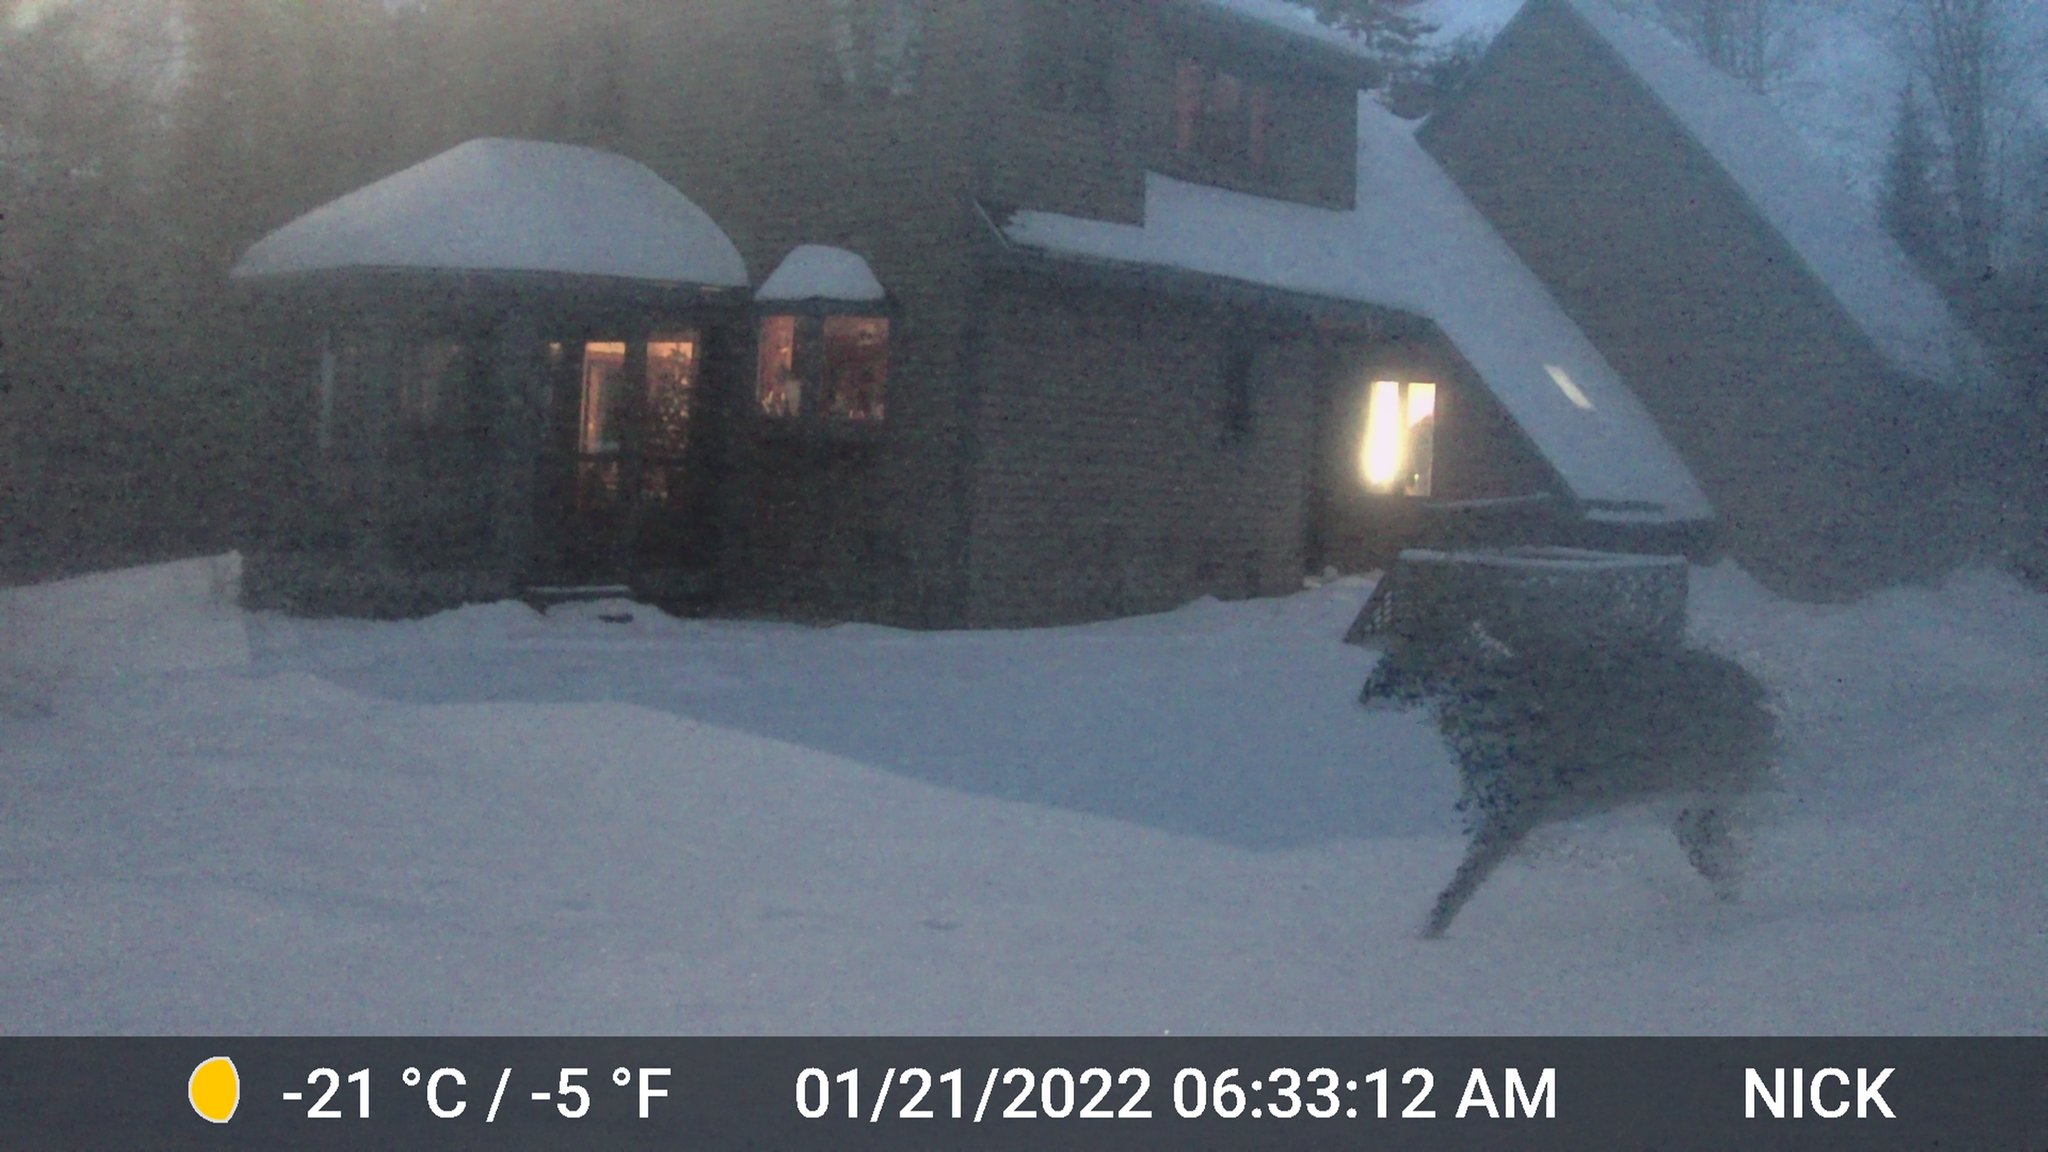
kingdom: Animalia
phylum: Chordata
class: Mammalia
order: Artiodactyla
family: Cervidae
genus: Odocoileus
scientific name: Odocoileus virginianus
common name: White-tailed deer
